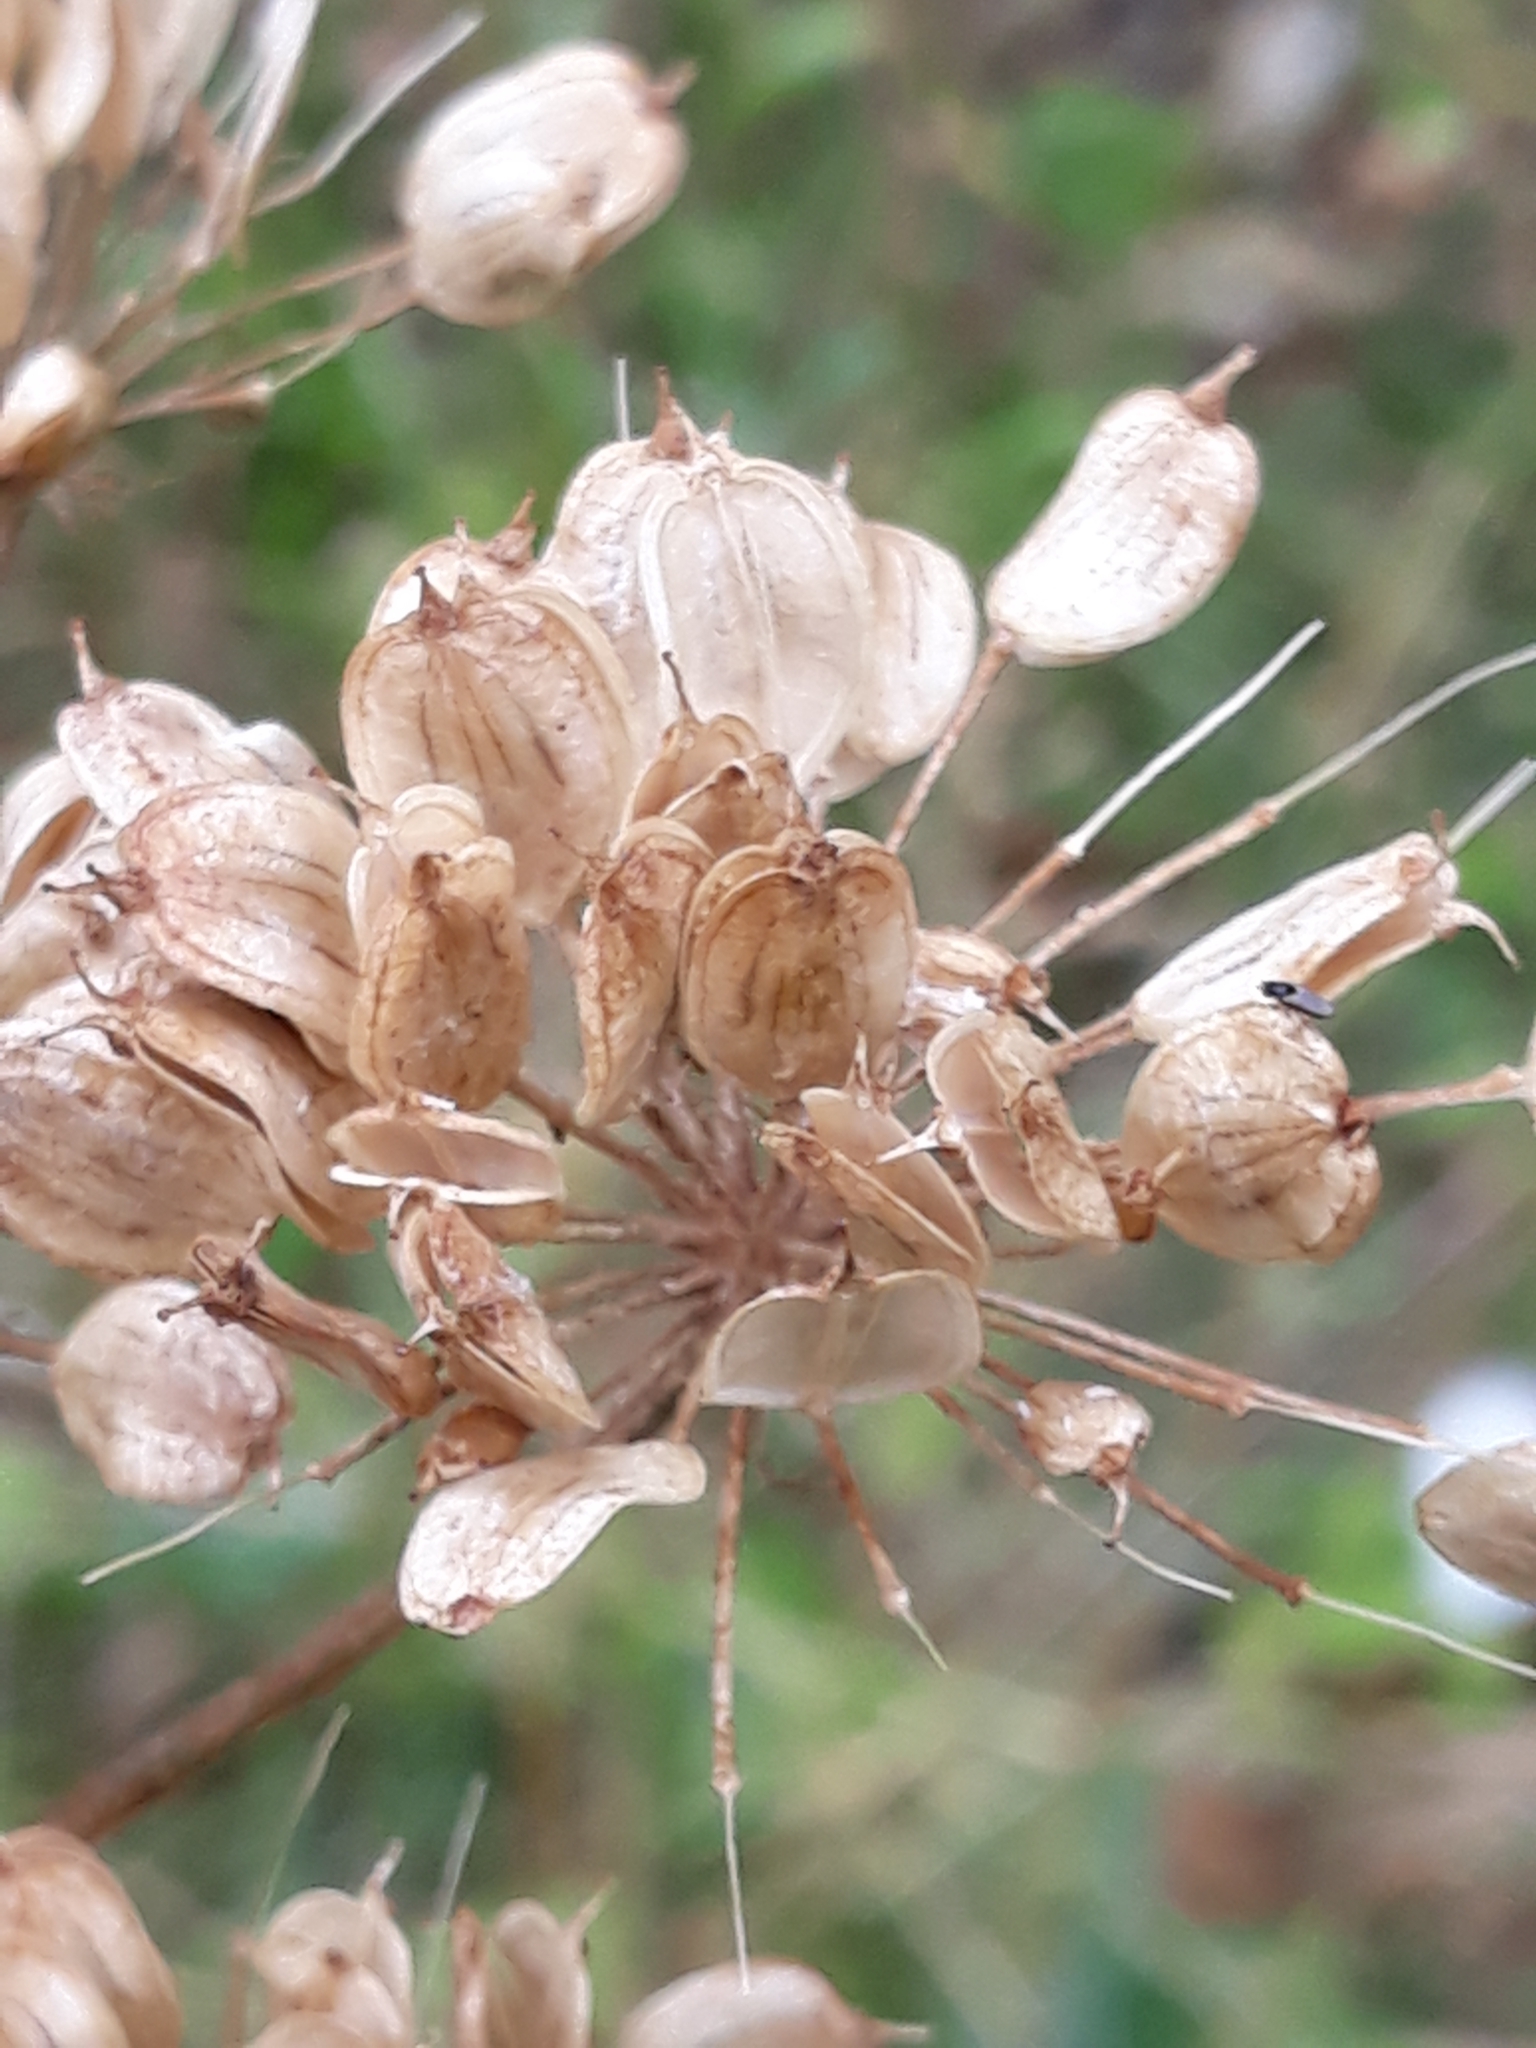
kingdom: Plantae
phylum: Tracheophyta
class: Magnoliopsida
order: Apiales
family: Apiaceae
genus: Heracleum
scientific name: Heracleum sphondylium
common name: Hogweed
